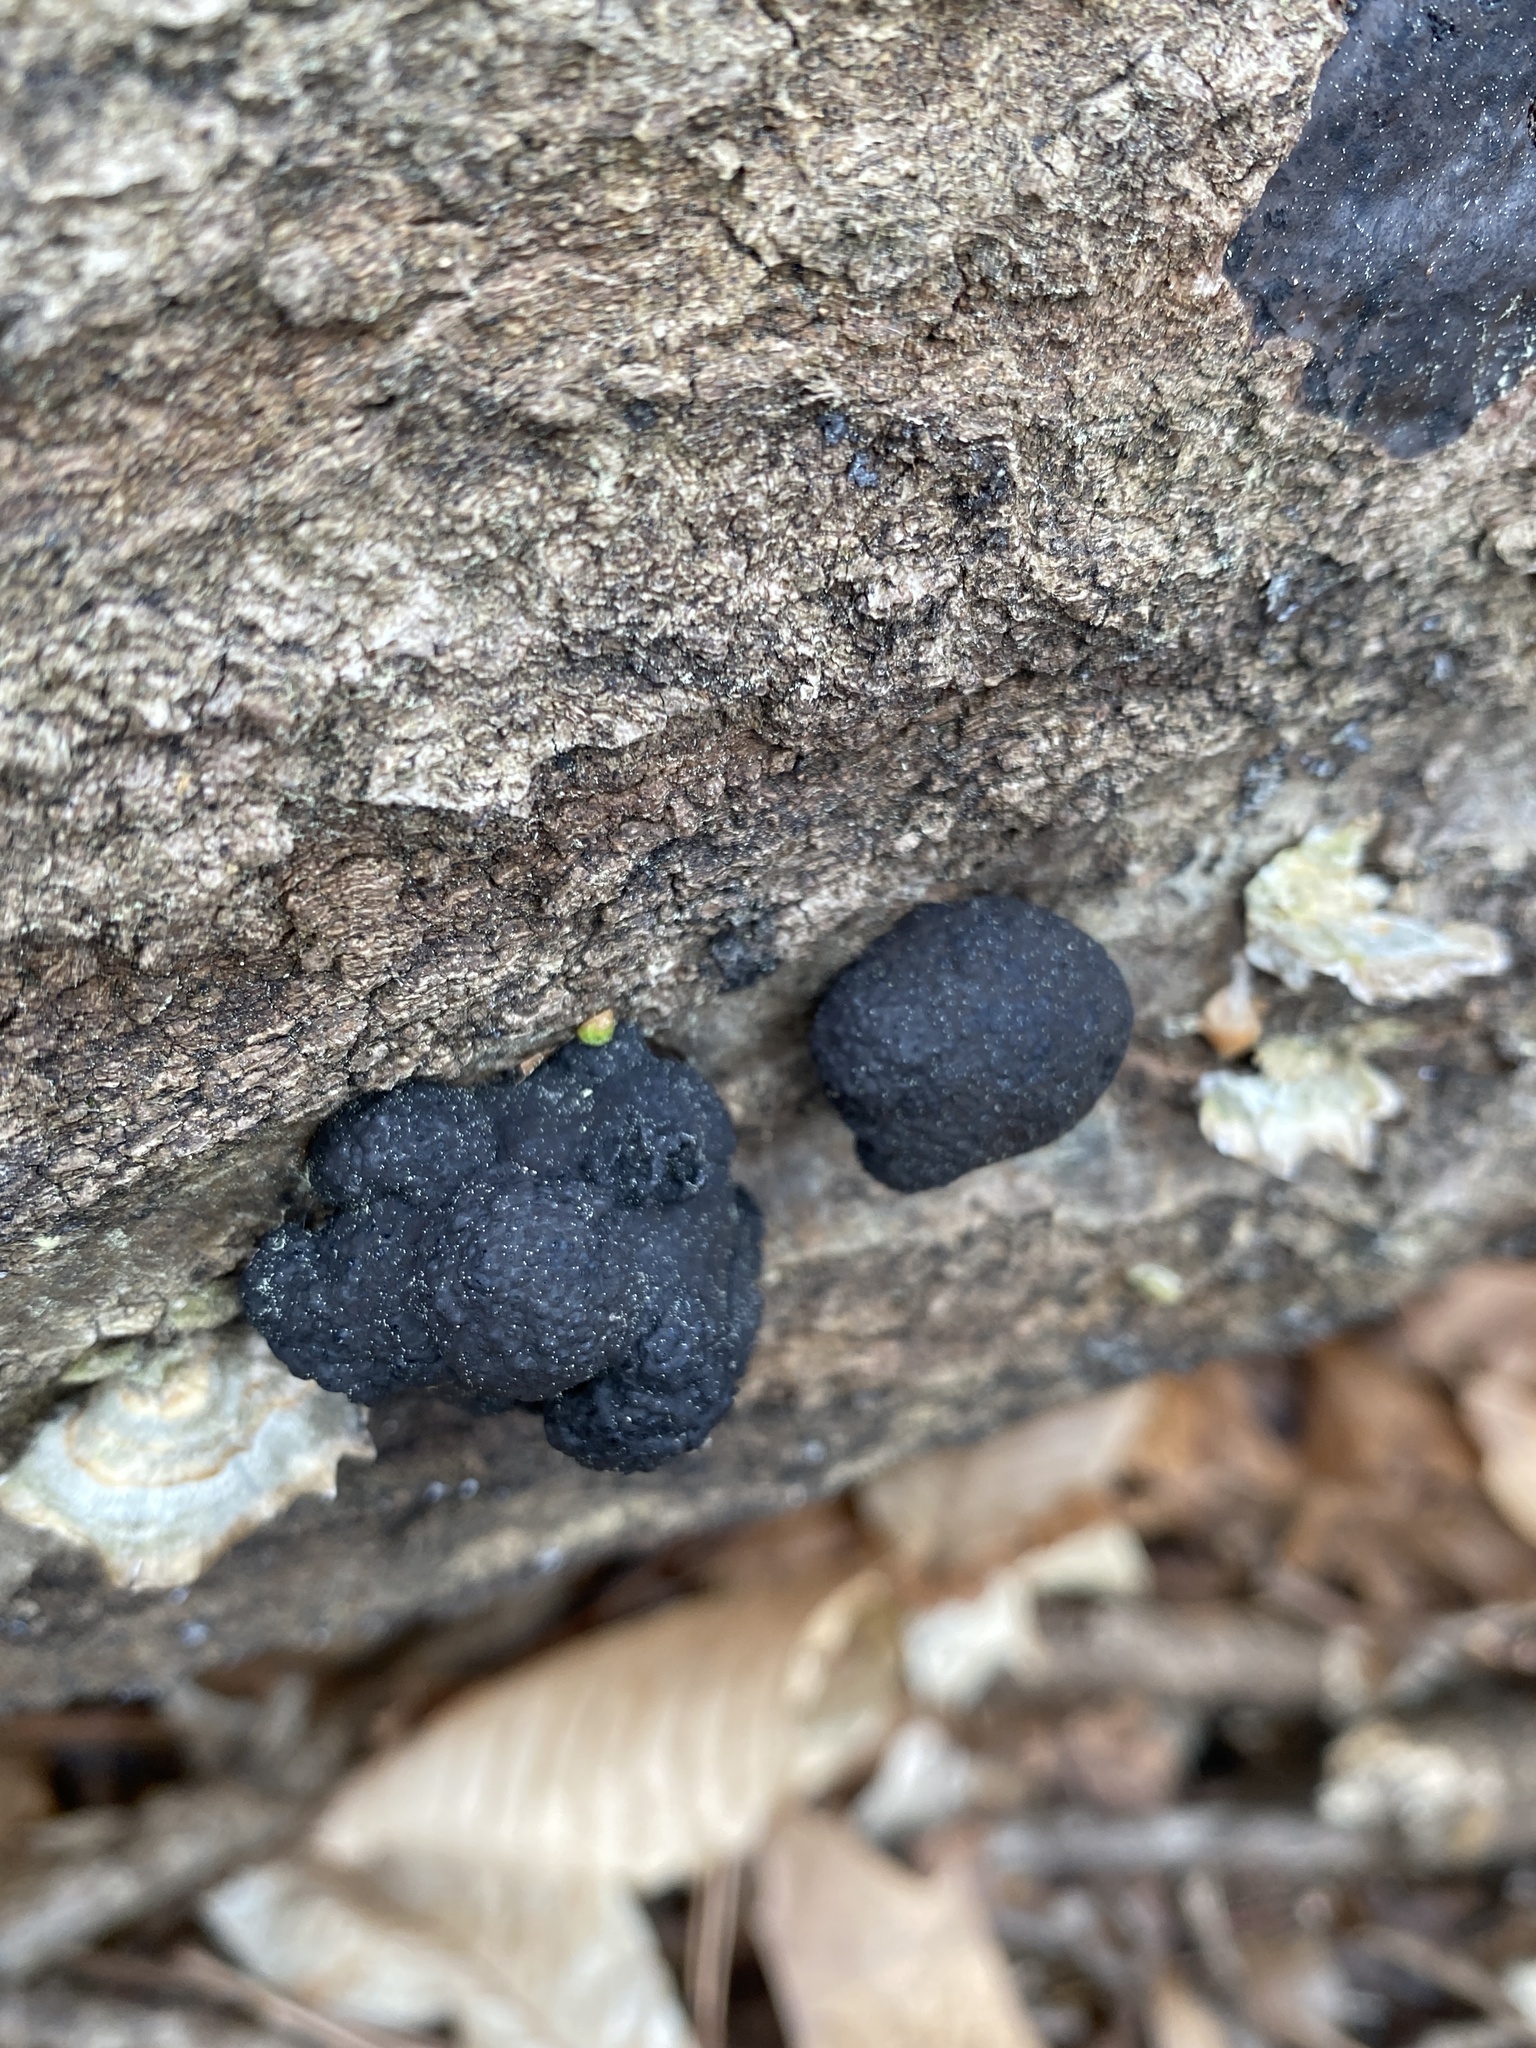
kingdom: Fungi
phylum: Ascomycota
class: Sordariomycetes
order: Xylariales
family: Hypoxylaceae
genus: Annulohypoxylon
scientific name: Annulohypoxylon thouarsianum
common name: Cramp balls
